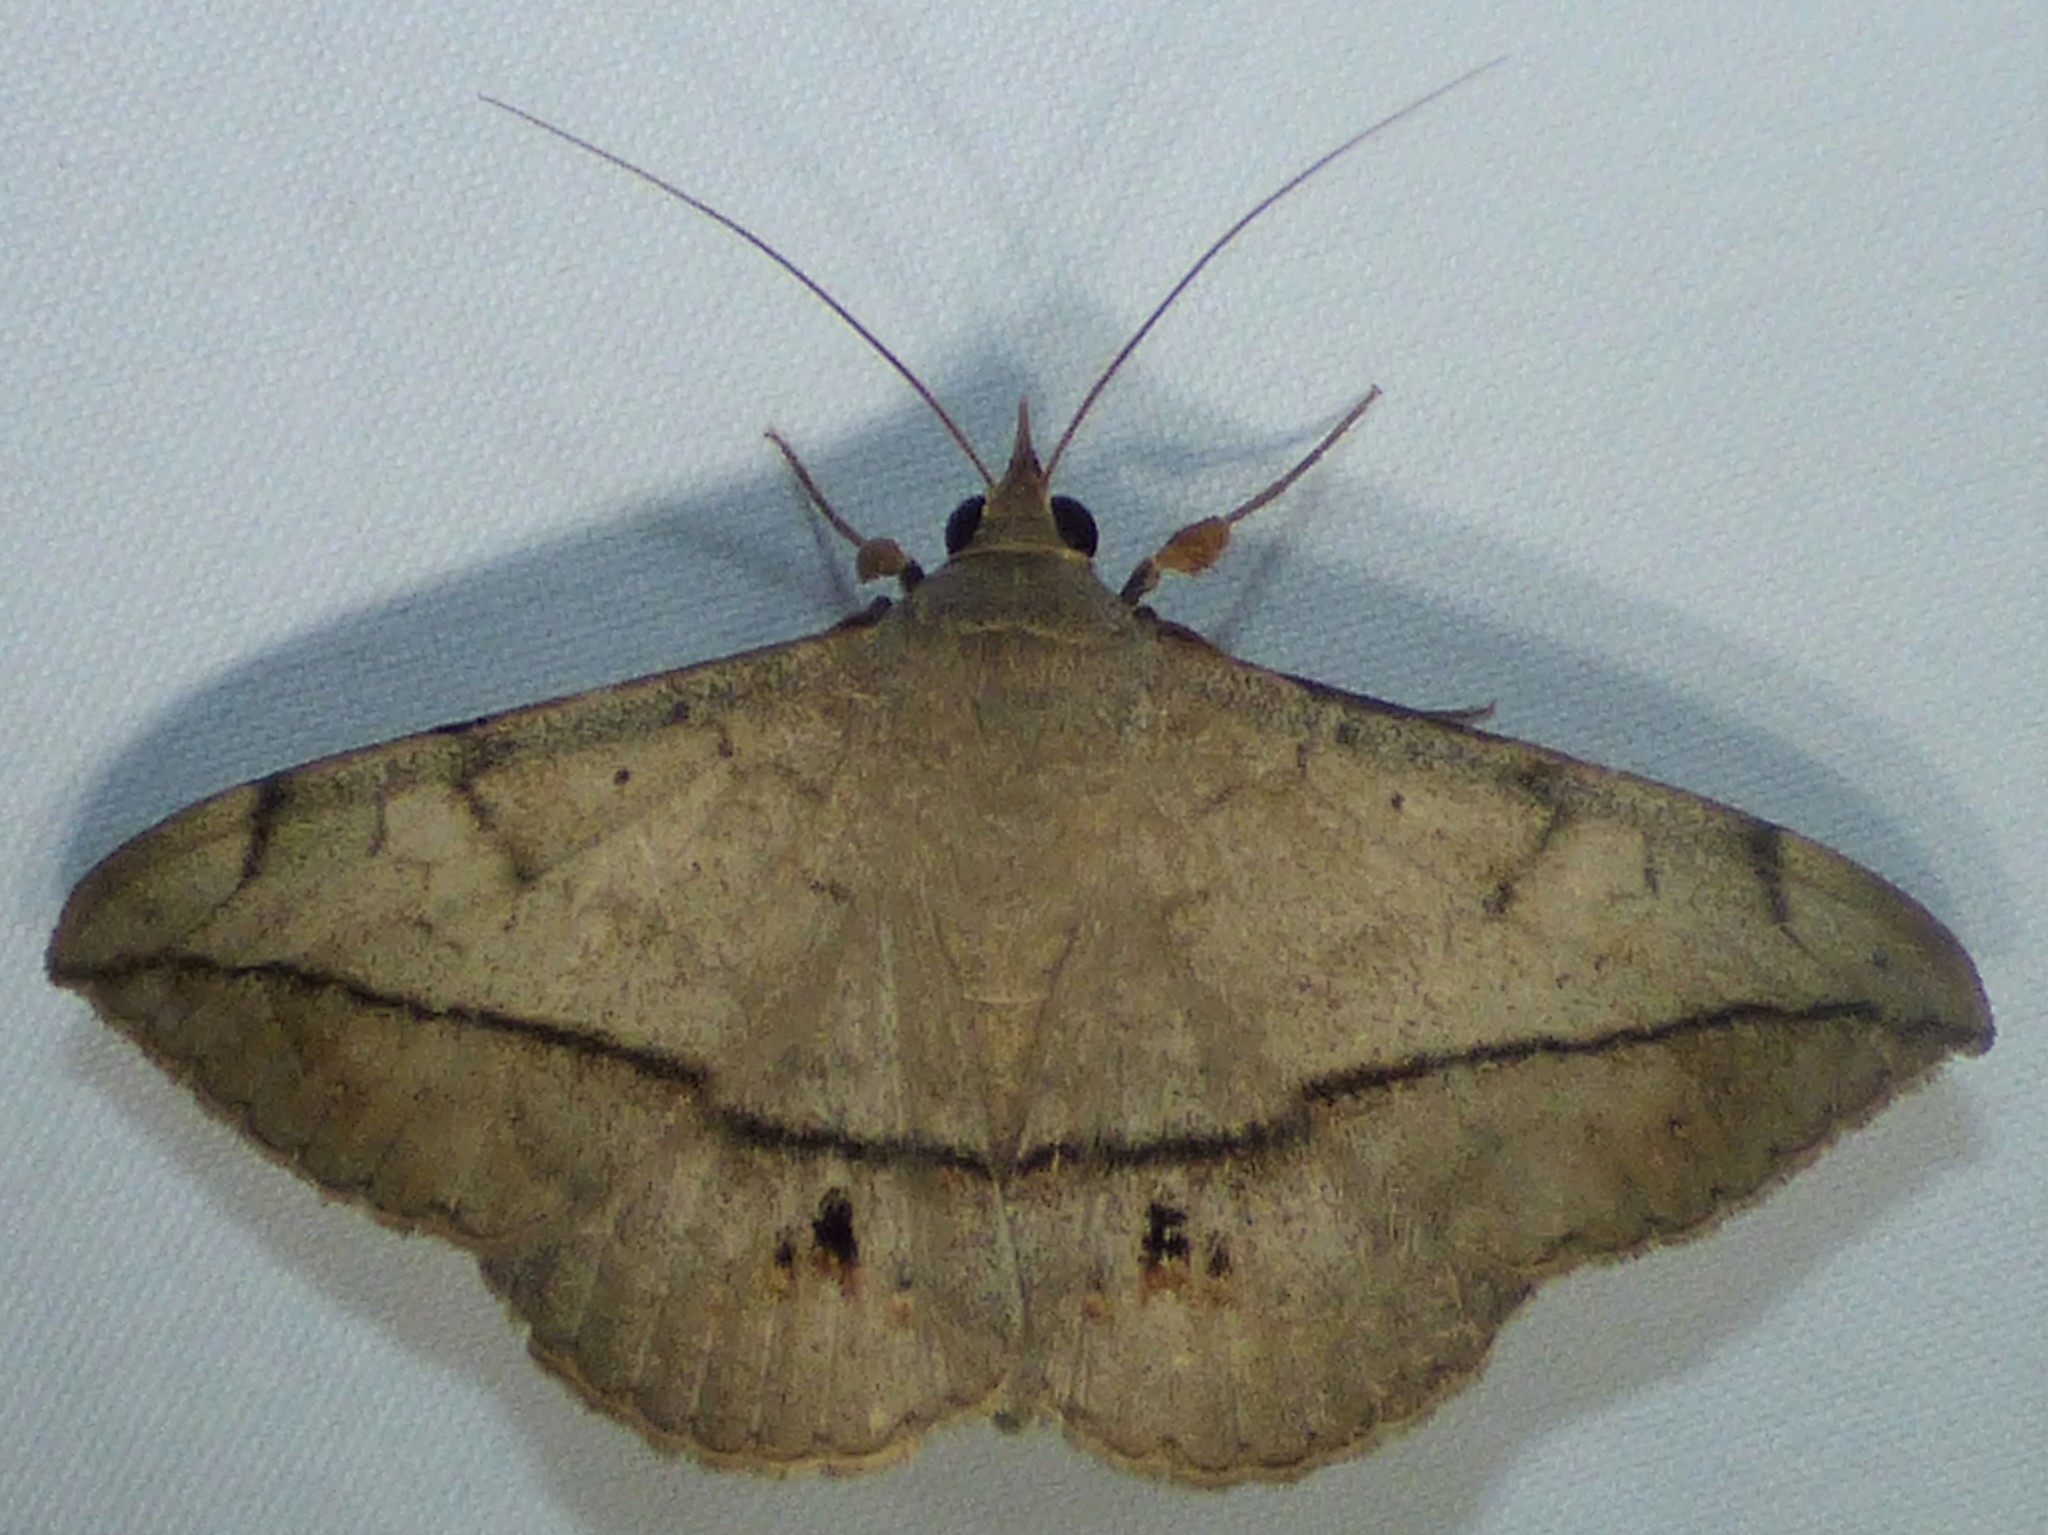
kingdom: Animalia
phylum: Arthropoda
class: Insecta
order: Lepidoptera
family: Erebidae
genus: Anticarsia
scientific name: Anticarsia gemmatalis
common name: Cutworm moth
